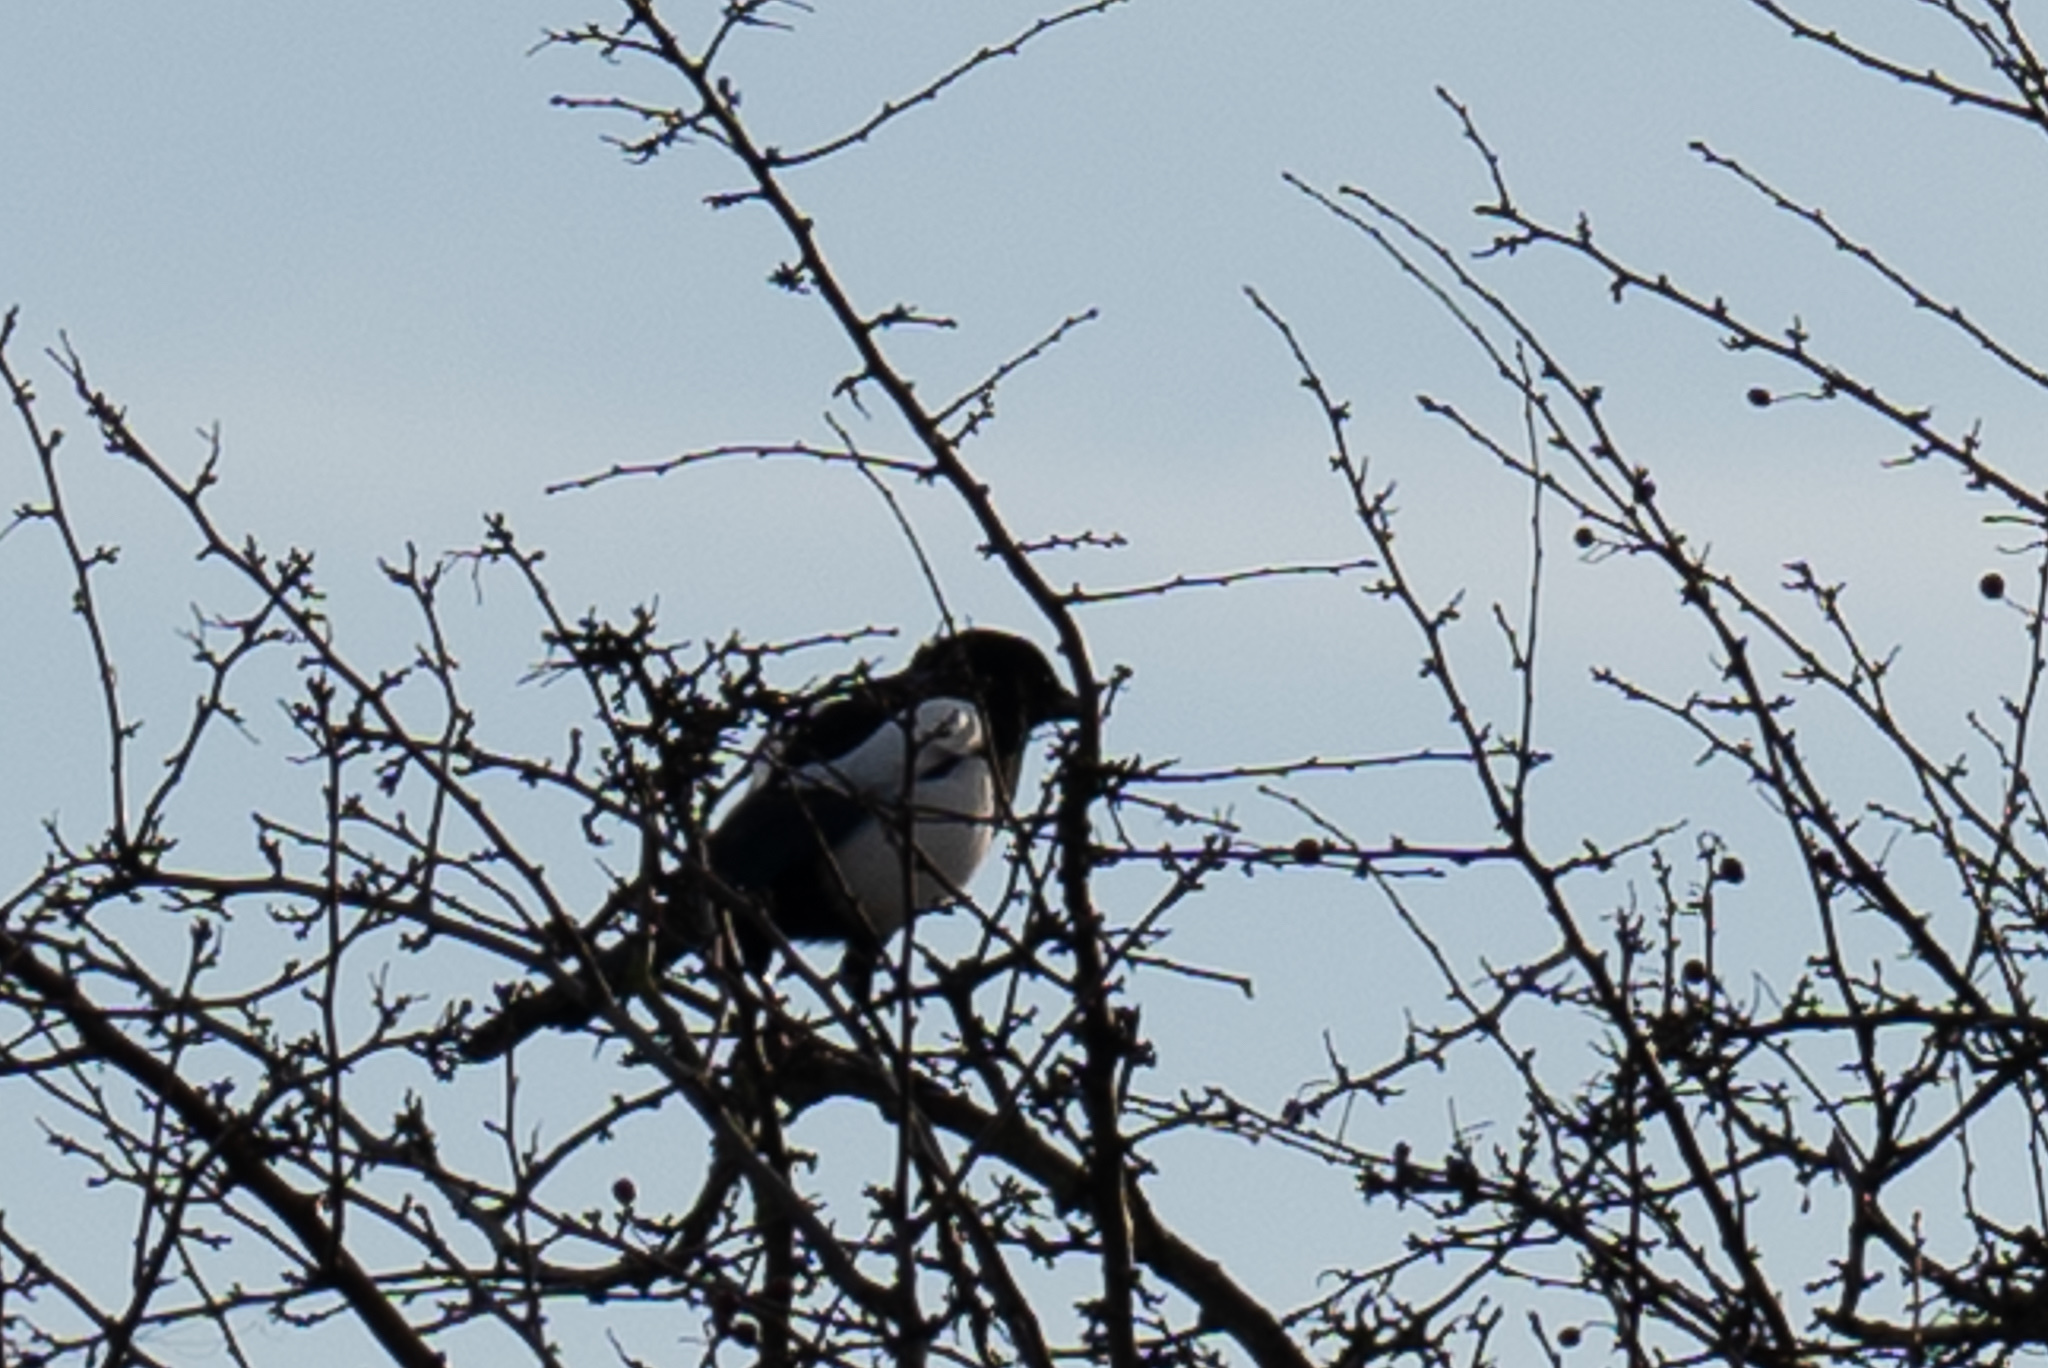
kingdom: Animalia
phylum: Chordata
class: Aves
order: Passeriformes
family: Corvidae
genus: Pica
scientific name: Pica pica
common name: Eurasian magpie
